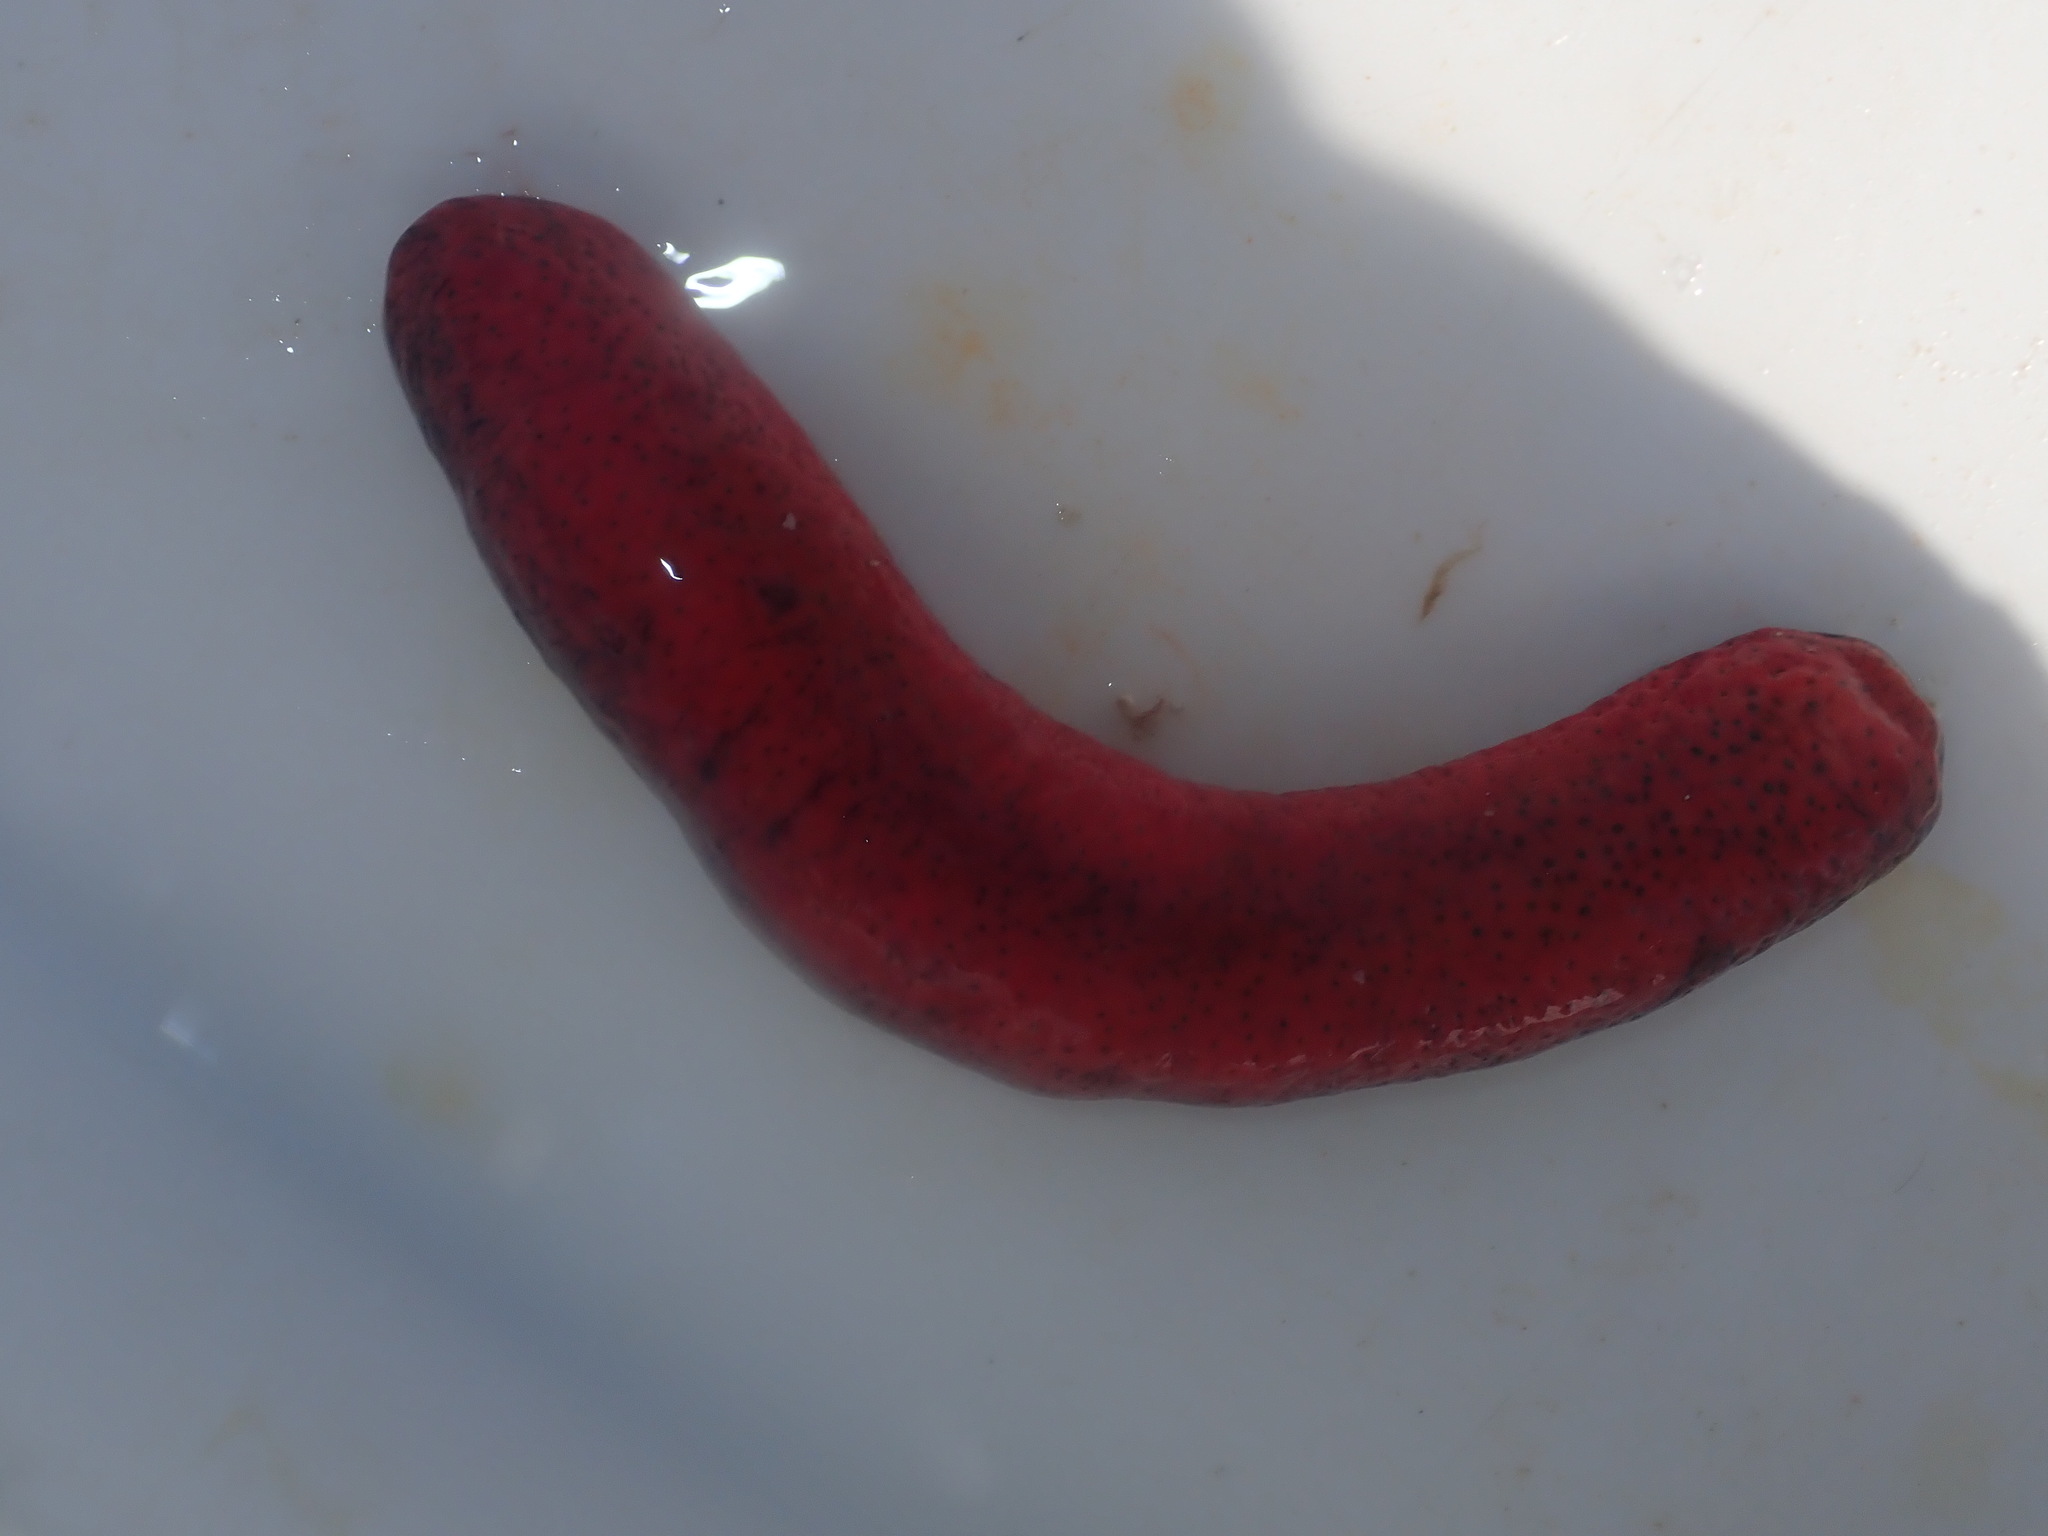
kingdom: Animalia
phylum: Echinodermata
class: Holothuroidea
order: Holothuriida
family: Holothuriidae
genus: Holothuria
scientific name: Holothuria edulis
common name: Pinkfish
